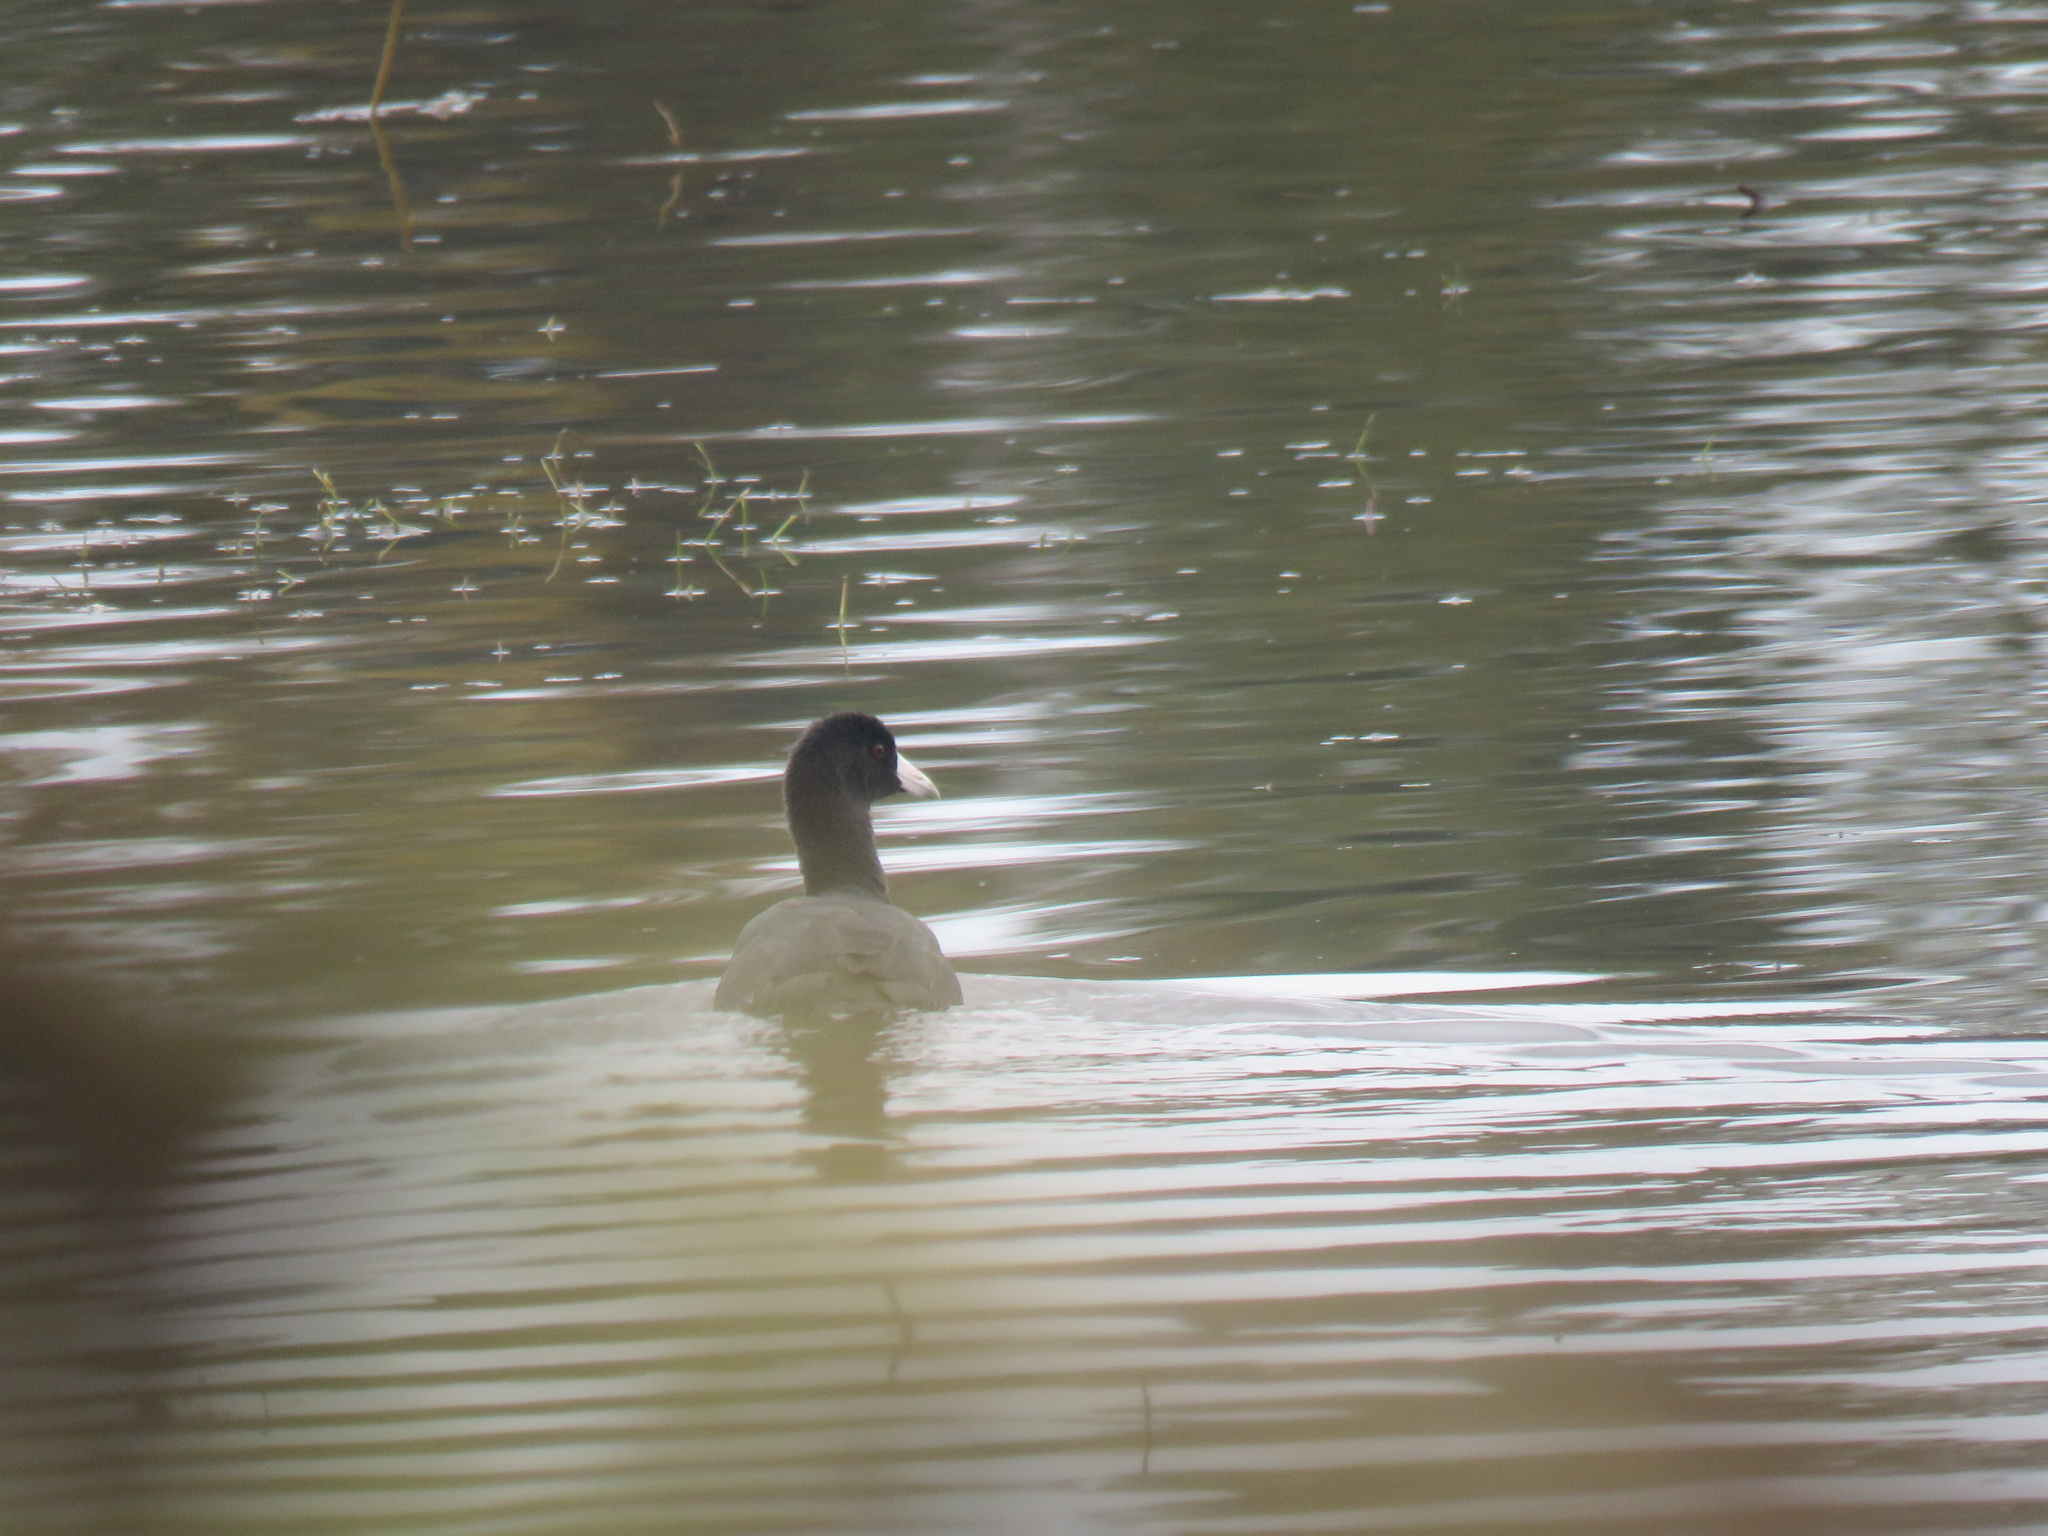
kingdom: Animalia
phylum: Chordata
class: Aves
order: Gruiformes
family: Rallidae
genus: Fulica
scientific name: Fulica americana
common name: American coot
